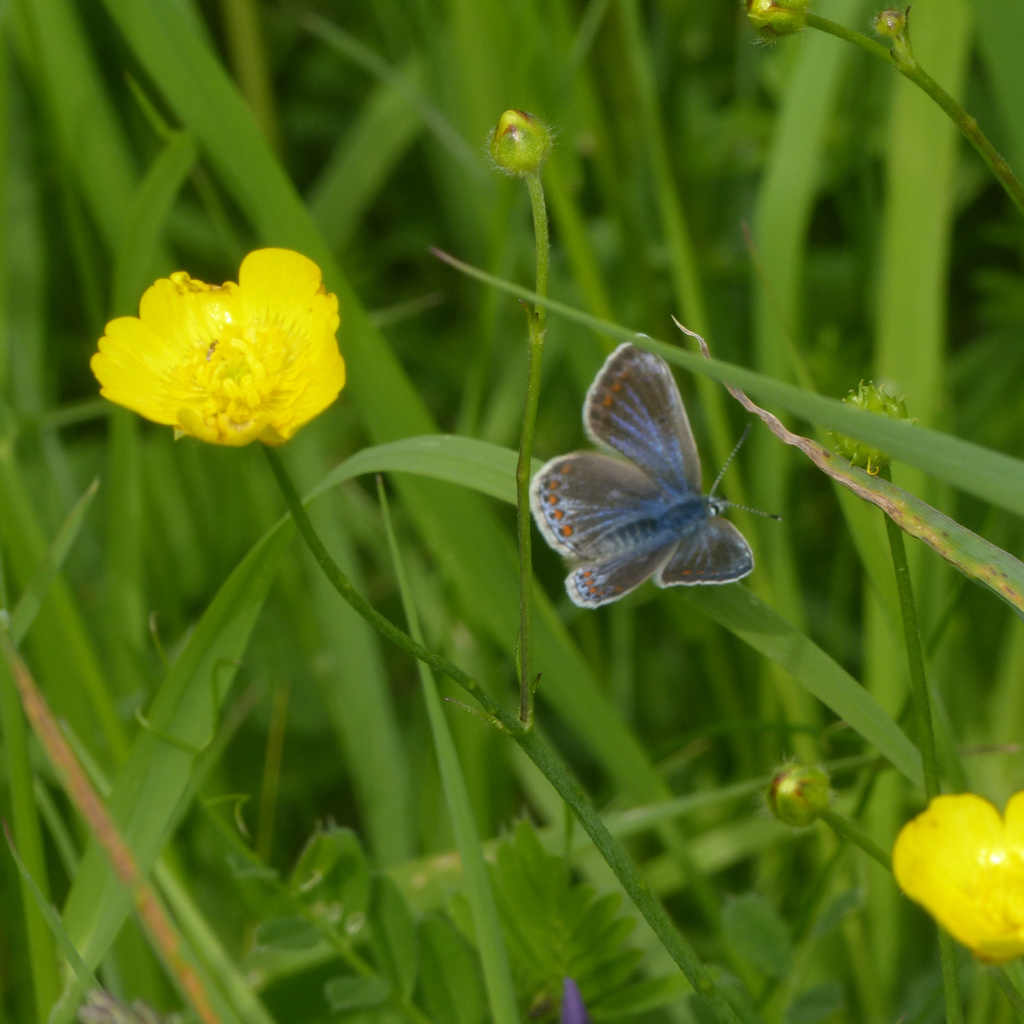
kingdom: Animalia
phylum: Arthropoda
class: Insecta
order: Lepidoptera
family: Lycaenidae
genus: Polyommatus
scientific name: Polyommatus icarus
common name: Common blue
